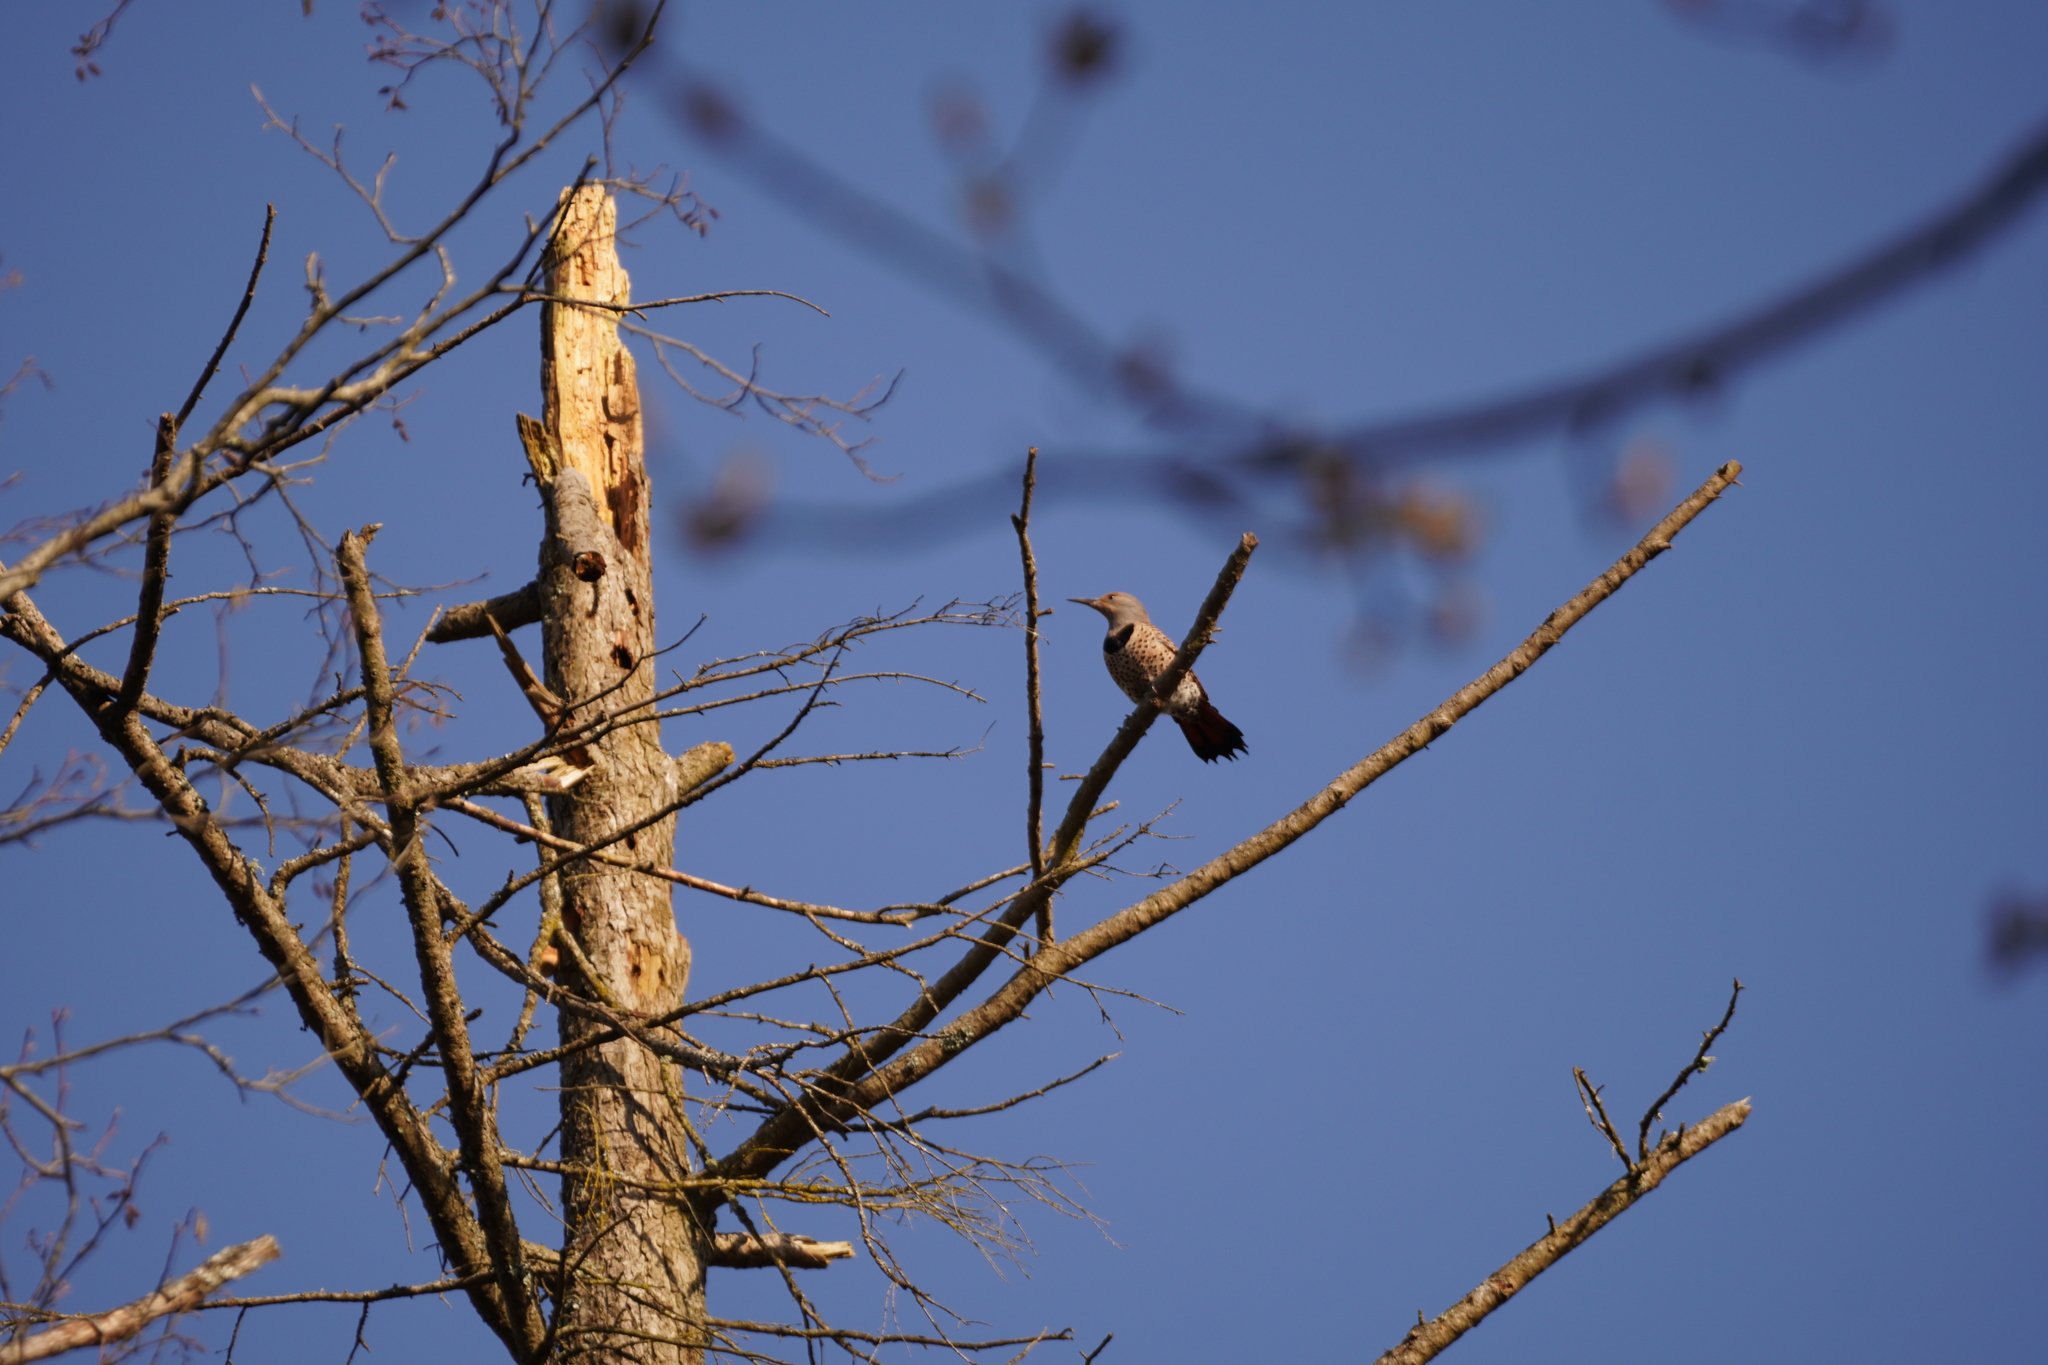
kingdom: Animalia
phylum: Chordata
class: Aves
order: Piciformes
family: Picidae
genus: Colaptes
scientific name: Colaptes auratus
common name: Northern flicker
